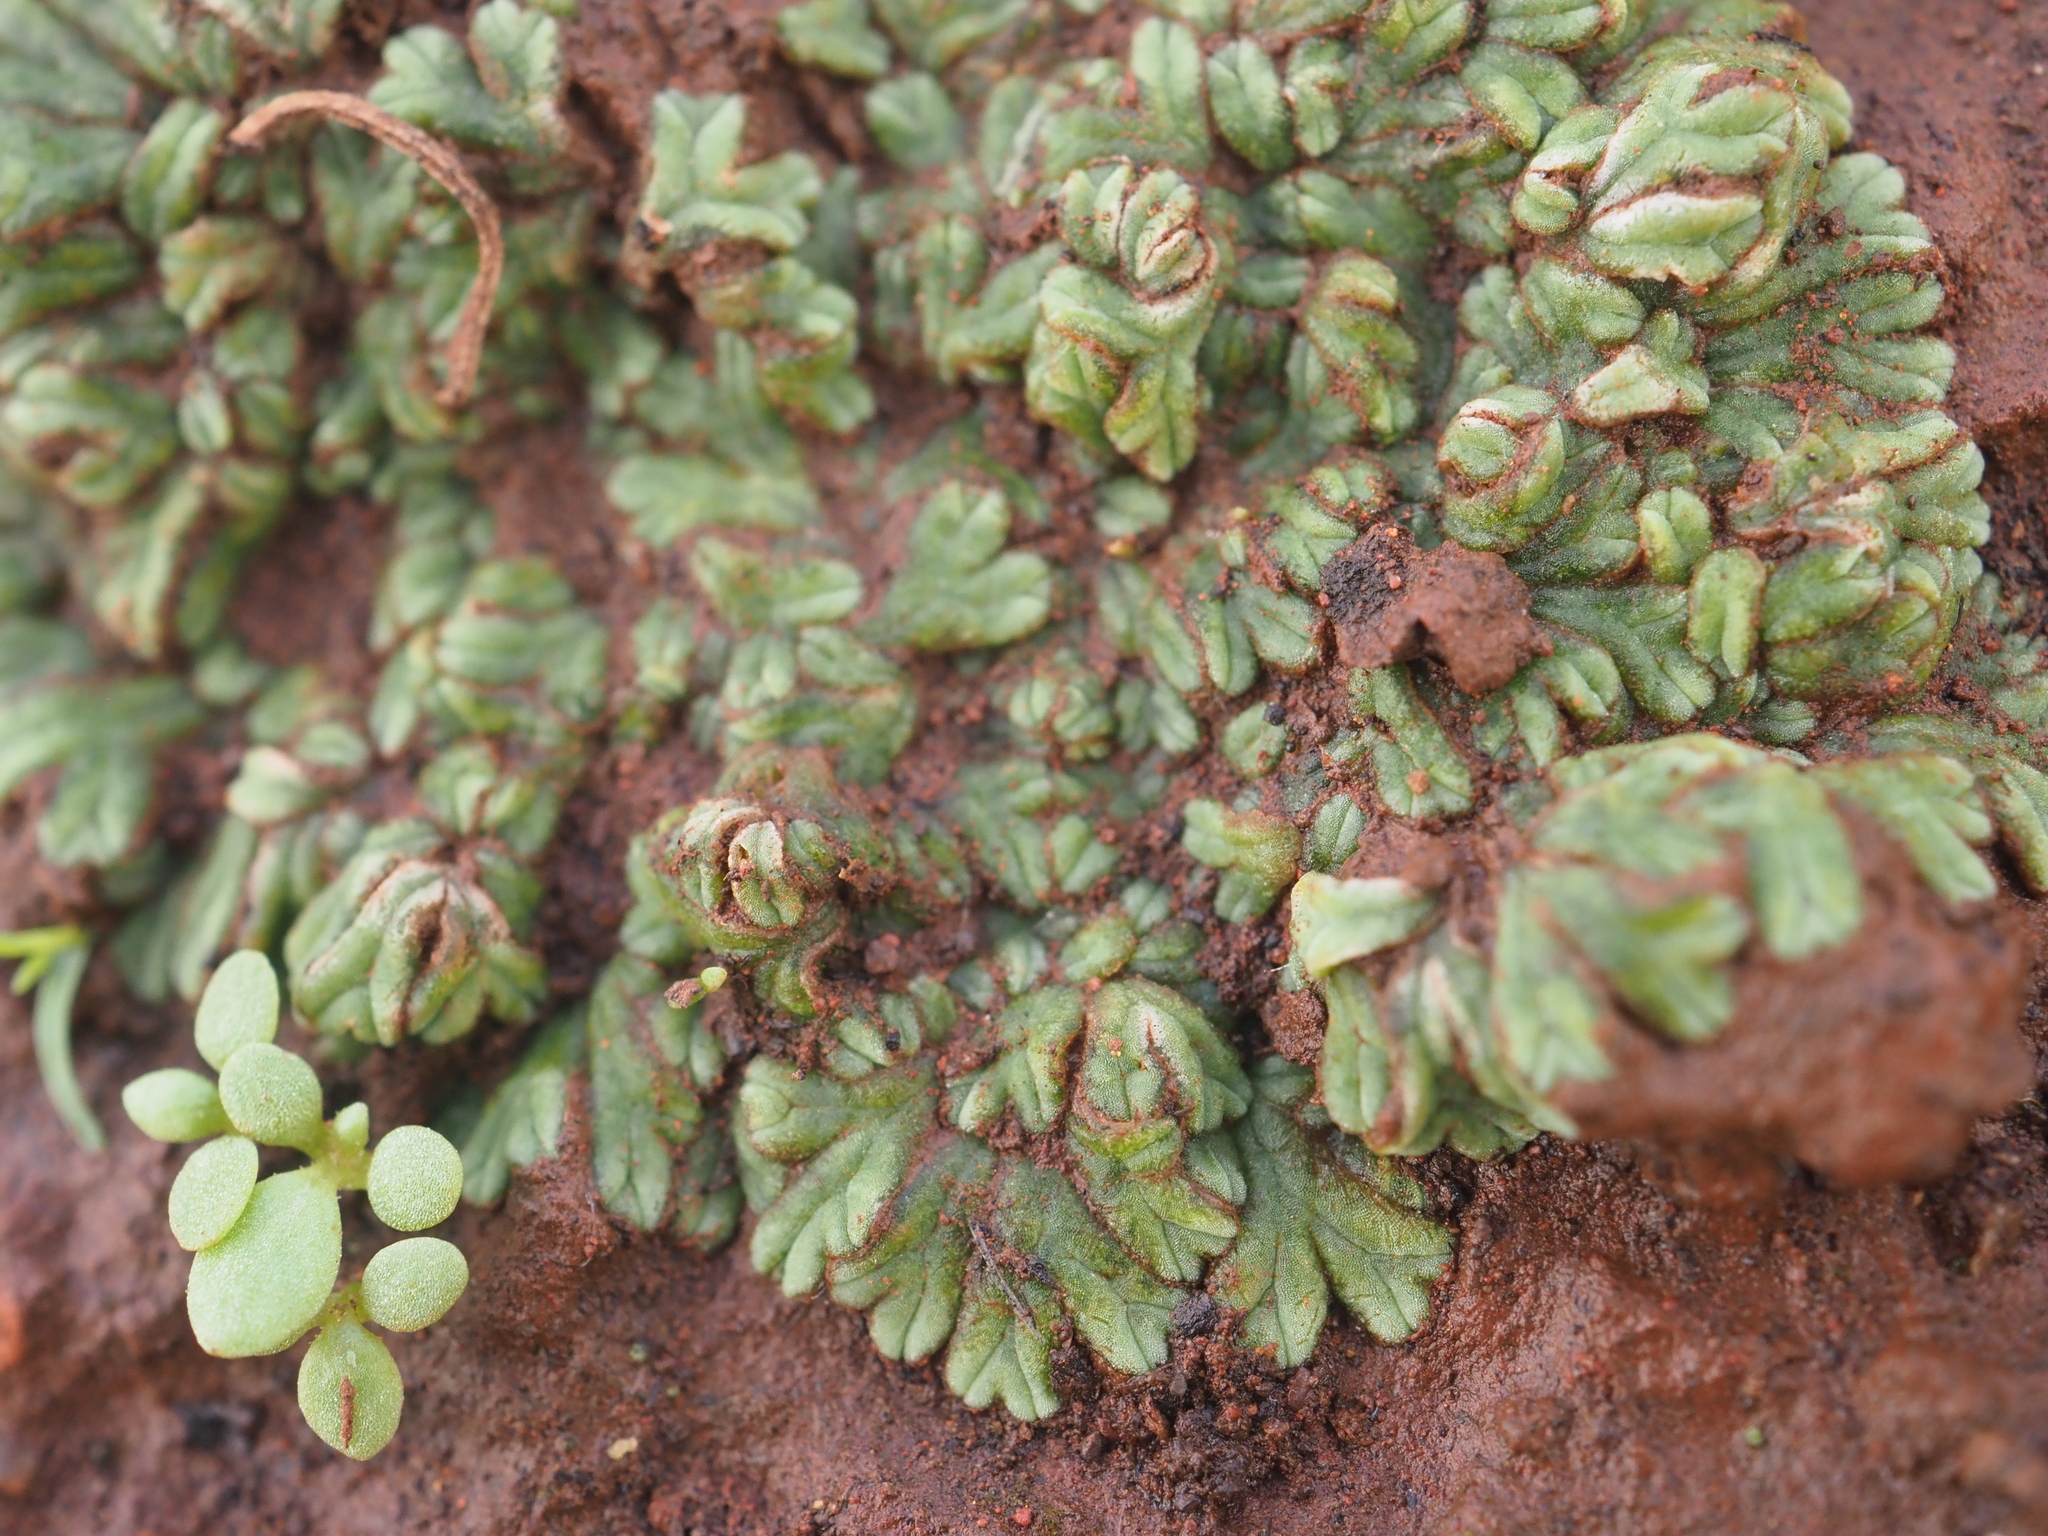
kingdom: Plantae
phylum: Marchantiophyta
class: Marchantiopsida
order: Marchantiales
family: Ricciaceae
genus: Ricciocarpos
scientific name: Ricciocarpos natans
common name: Purple-fringed liverwort
